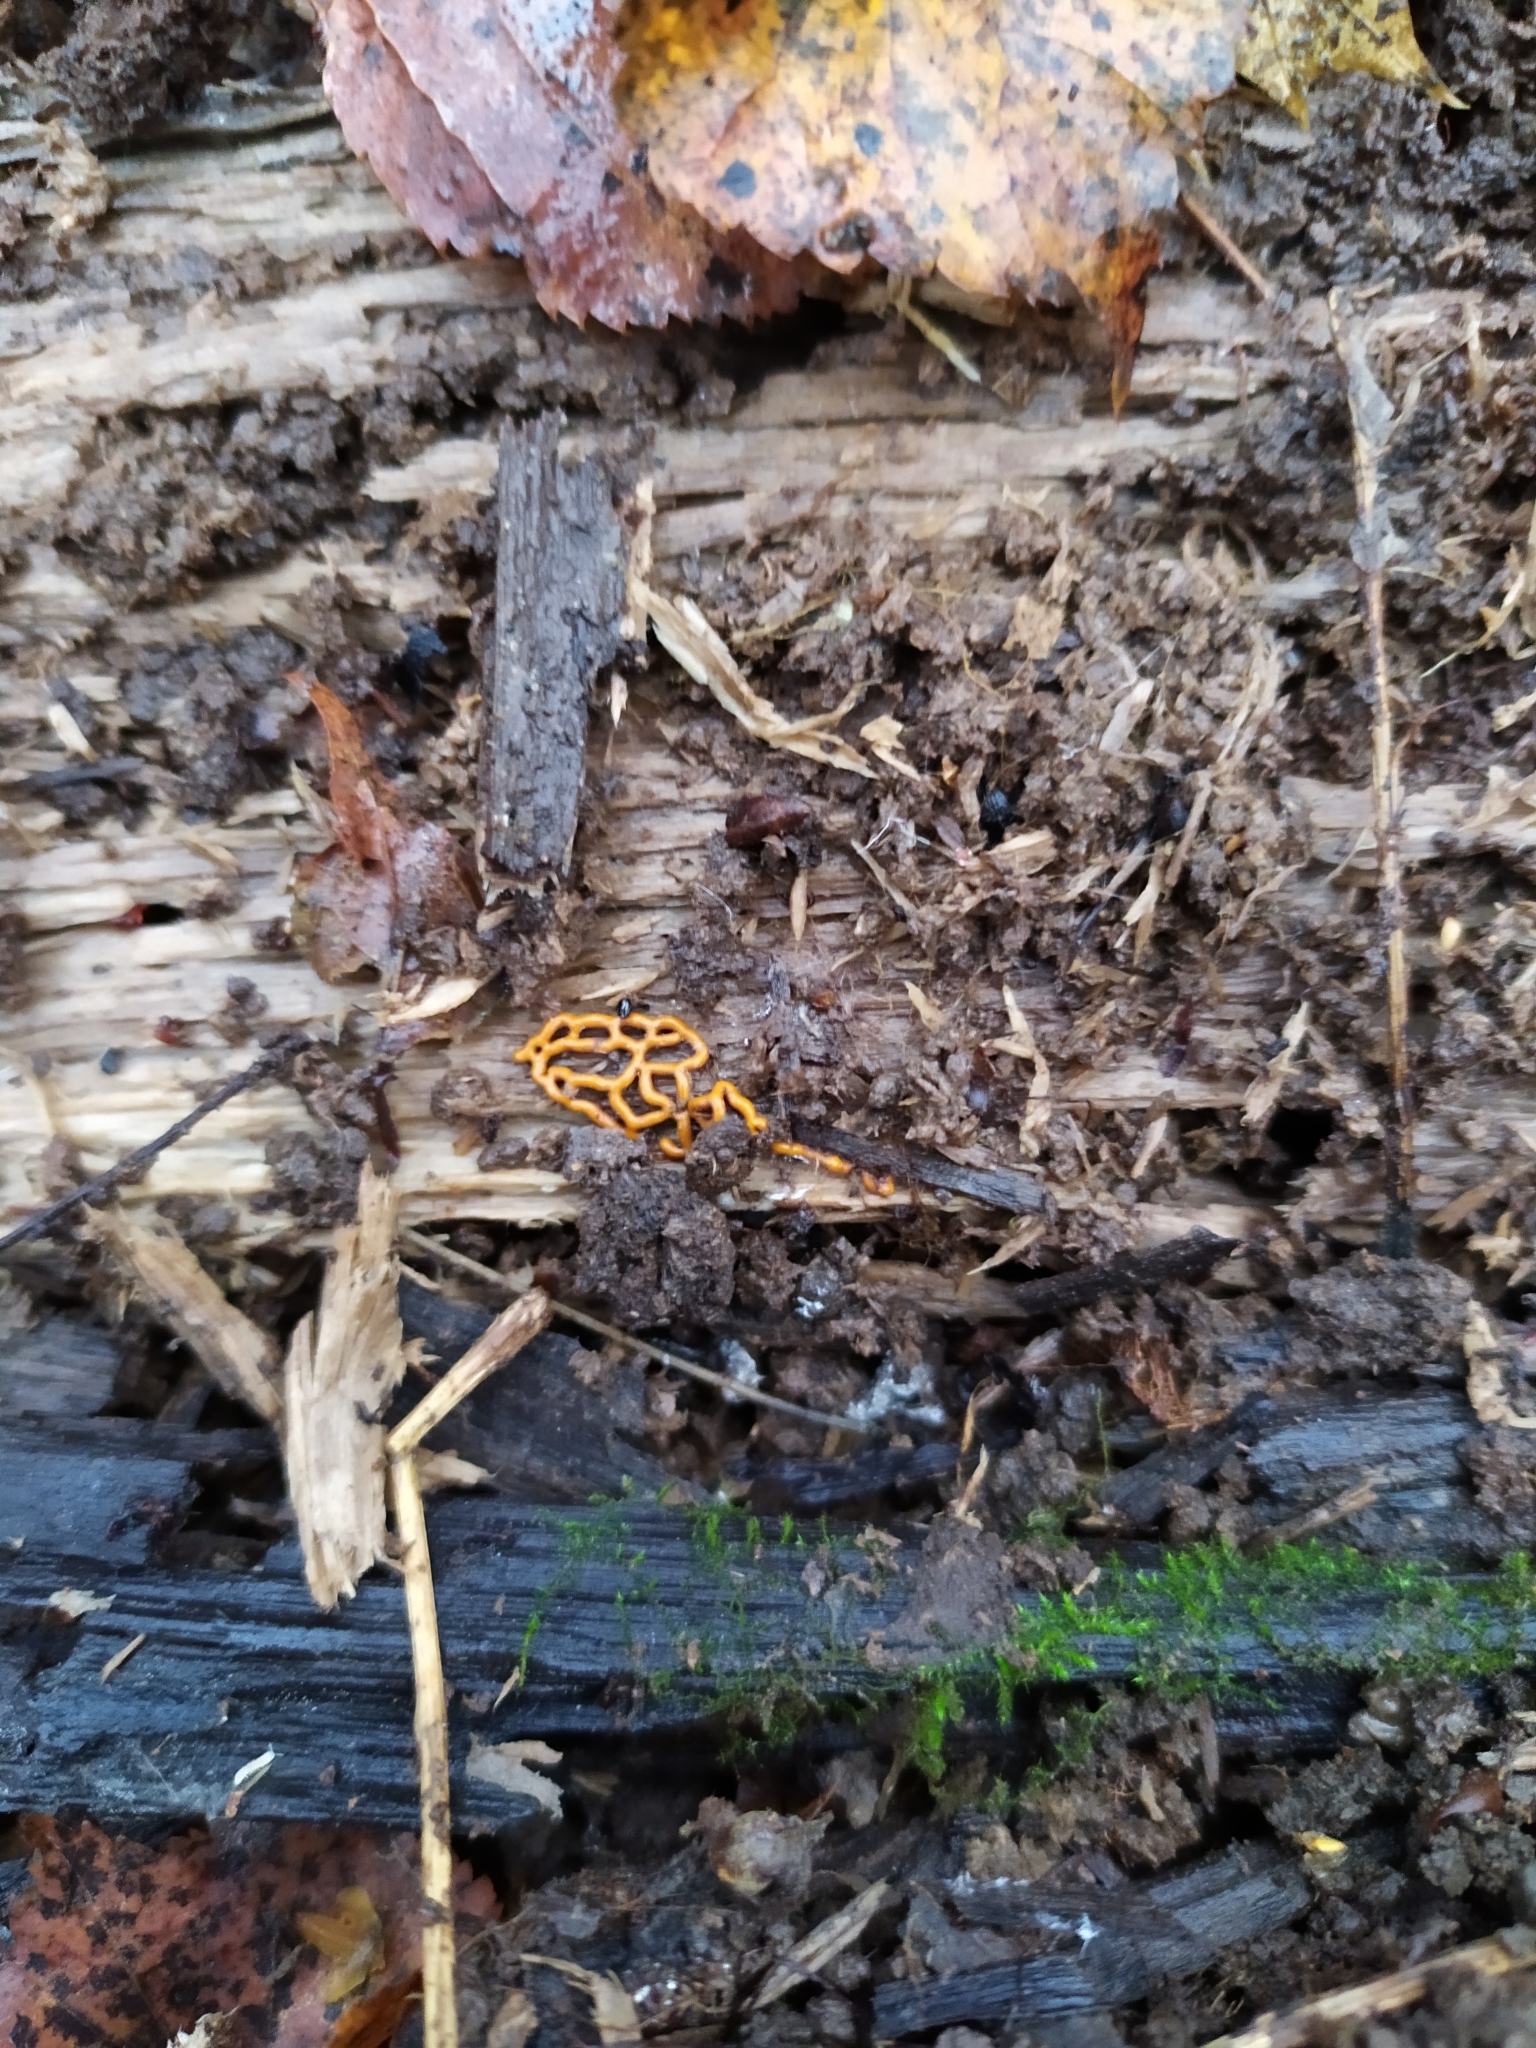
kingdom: Protozoa
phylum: Mycetozoa
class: Myxomycetes
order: Trichiales
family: Arcyriaceae
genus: Hemitrichia
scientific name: Hemitrichia serpula
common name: Pretzel slime mold
